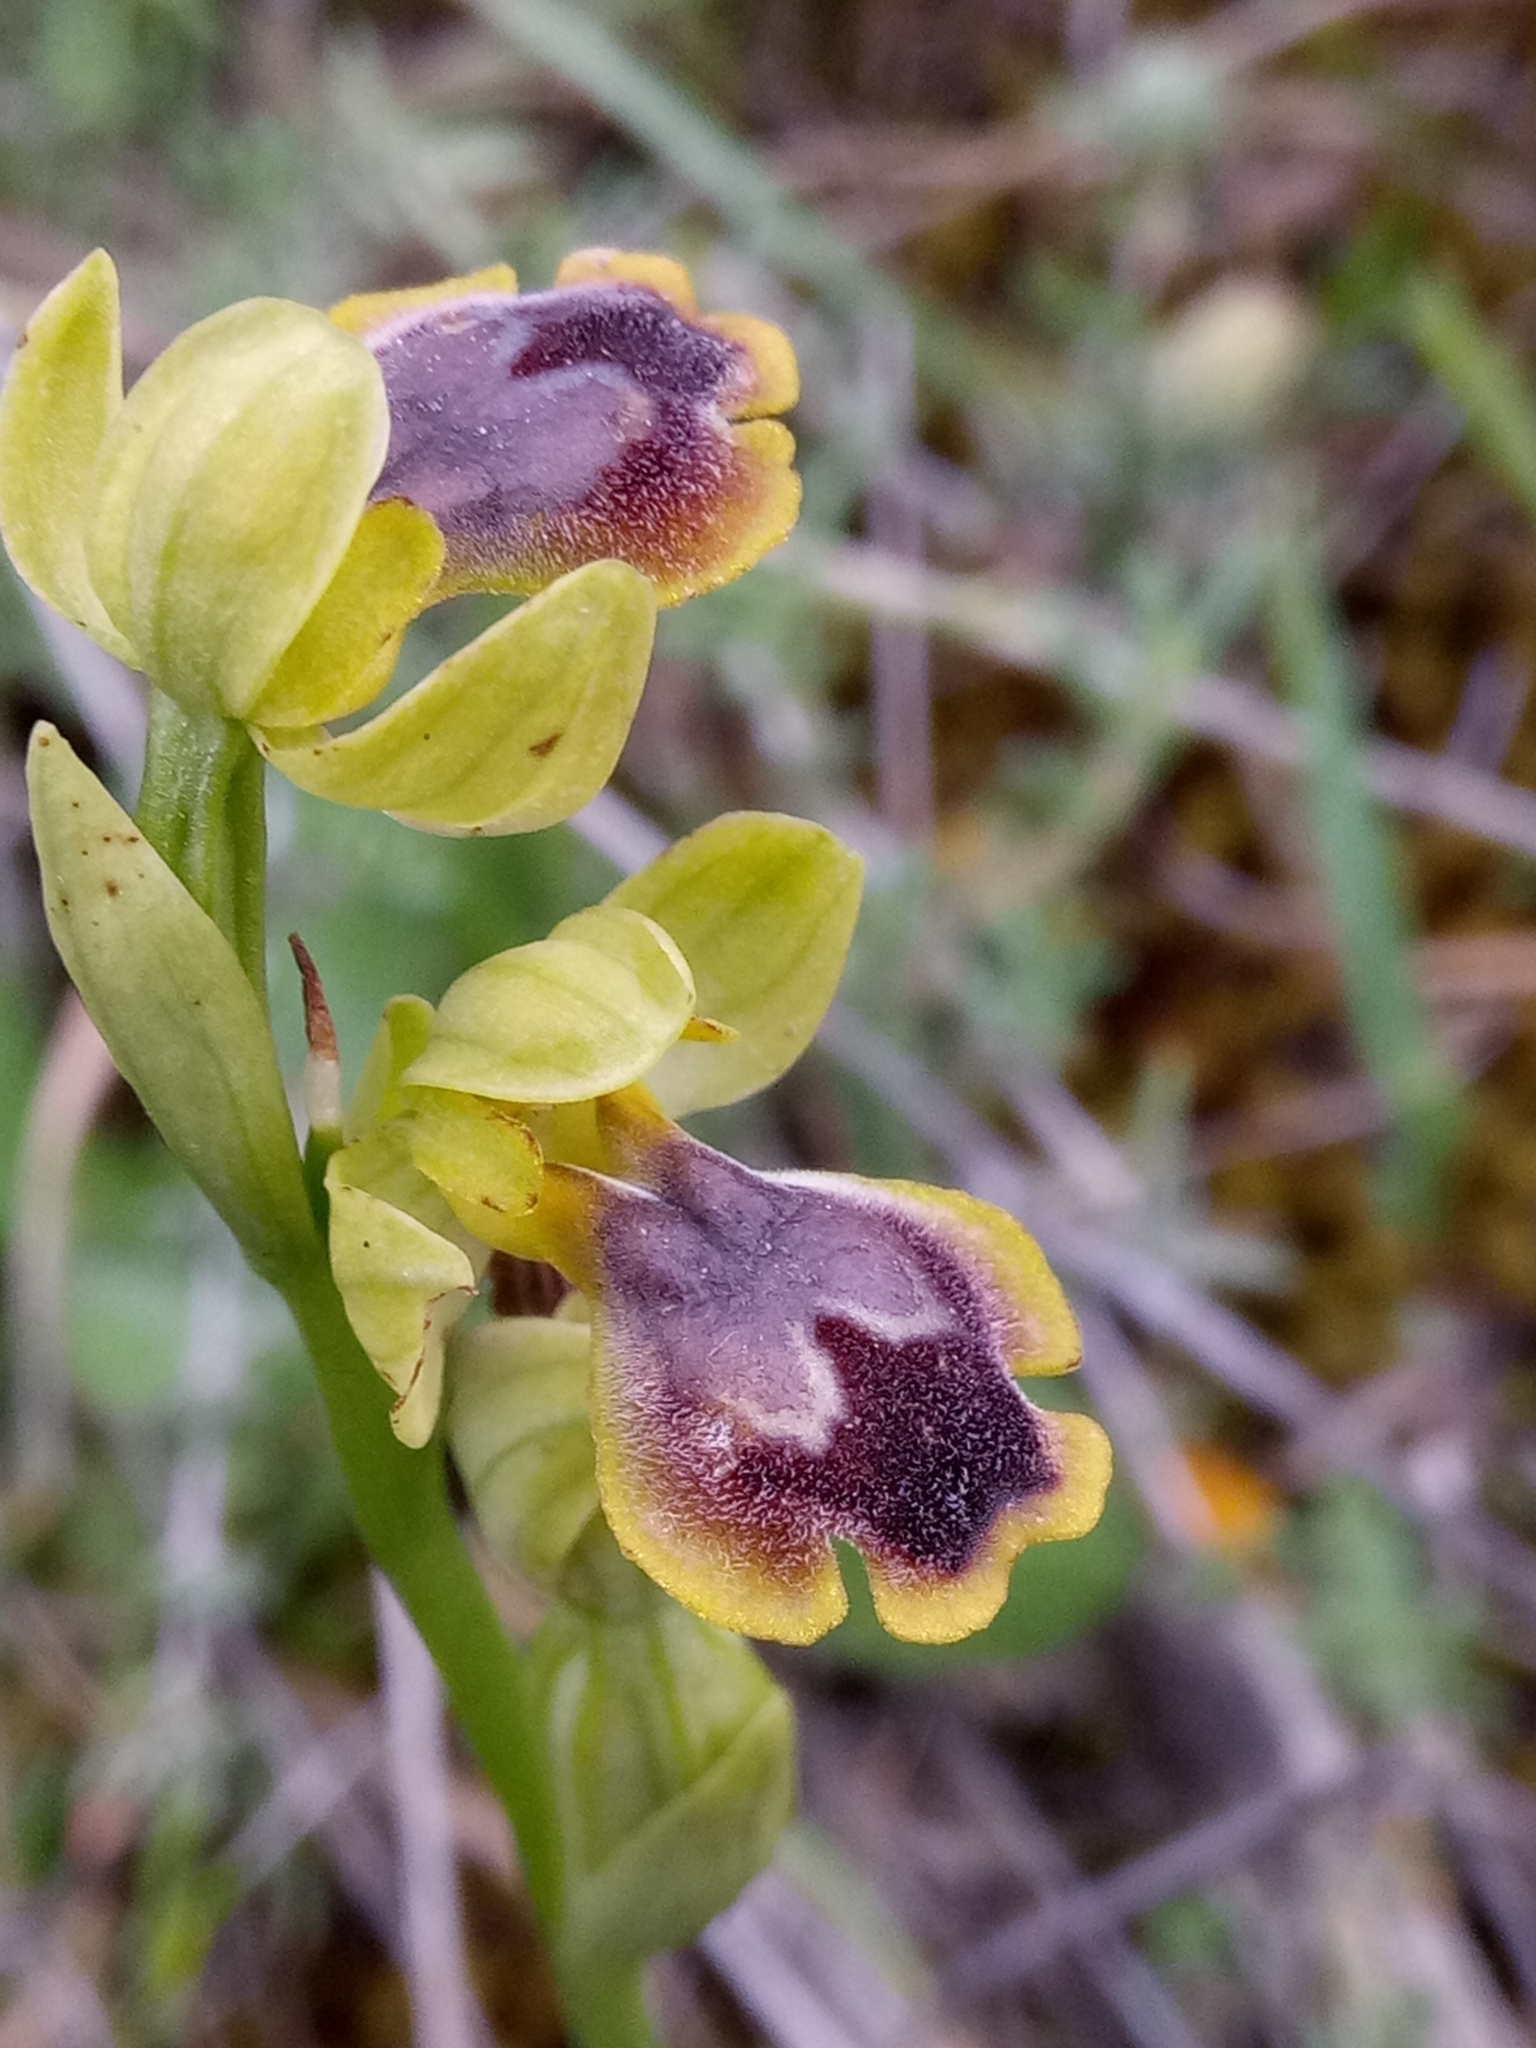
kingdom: Plantae
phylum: Tracheophyta
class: Liliopsida
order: Asparagales
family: Orchidaceae
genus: Ophrys
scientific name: Ophrys battandieri
